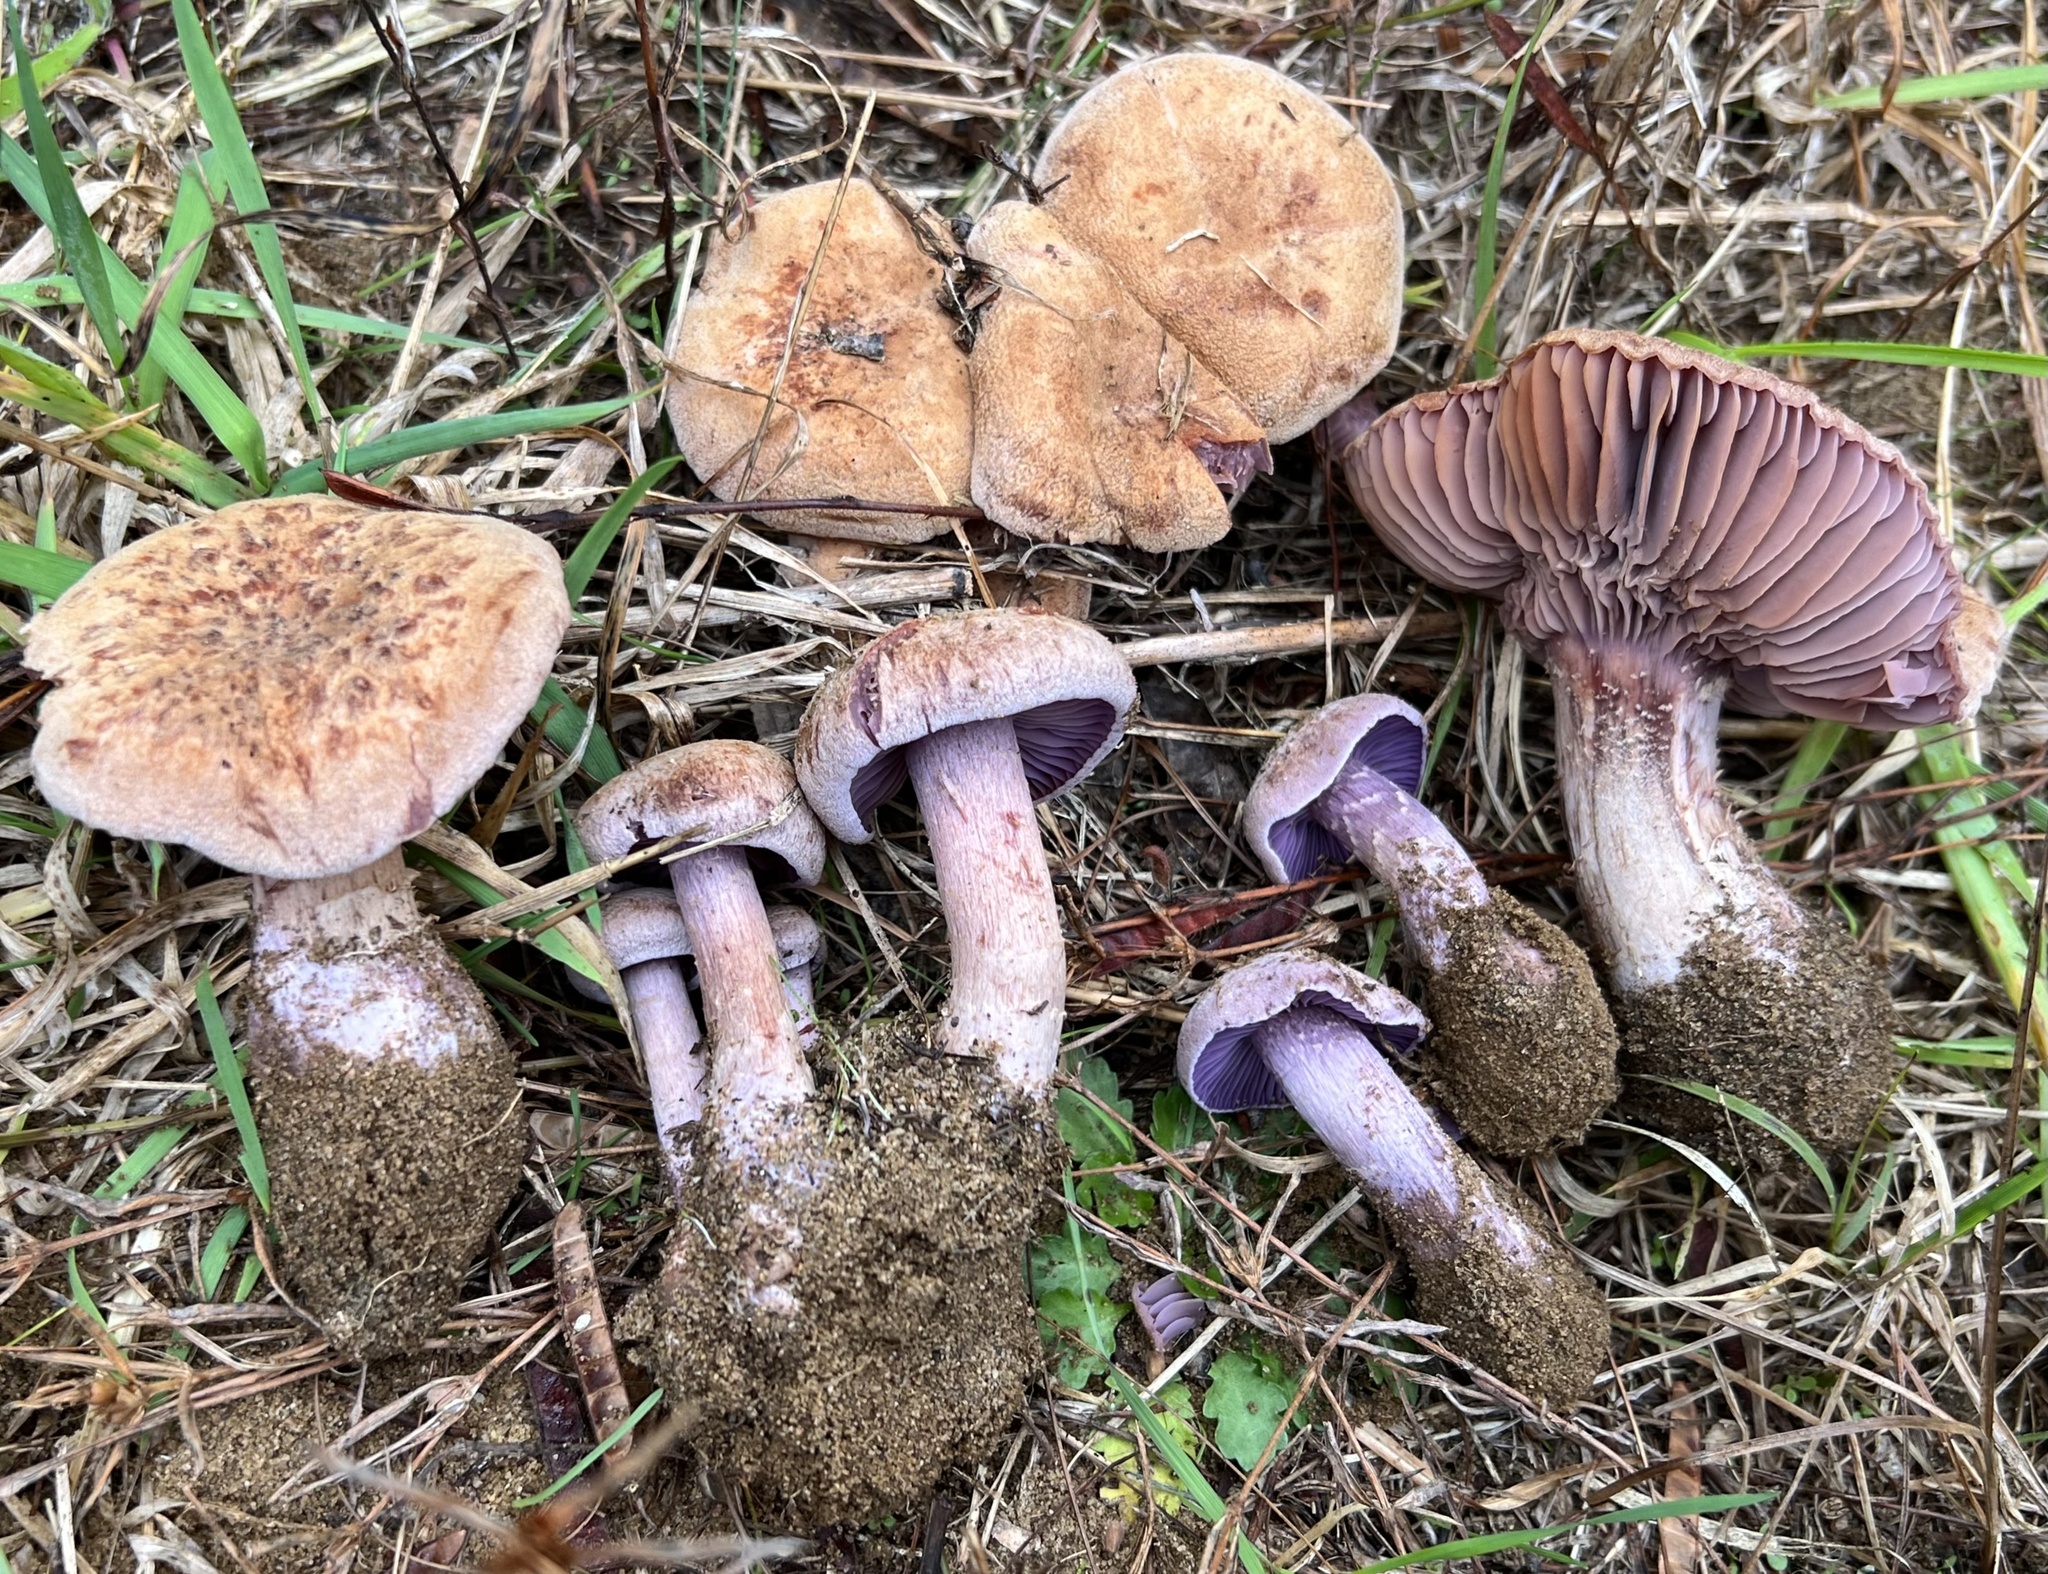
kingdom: Fungi
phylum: Basidiomycota
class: Agaricomycetes
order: Agaricales
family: Hydnangiaceae
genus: Laccaria
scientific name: Laccaria trullissata
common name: Sandy laccaria
